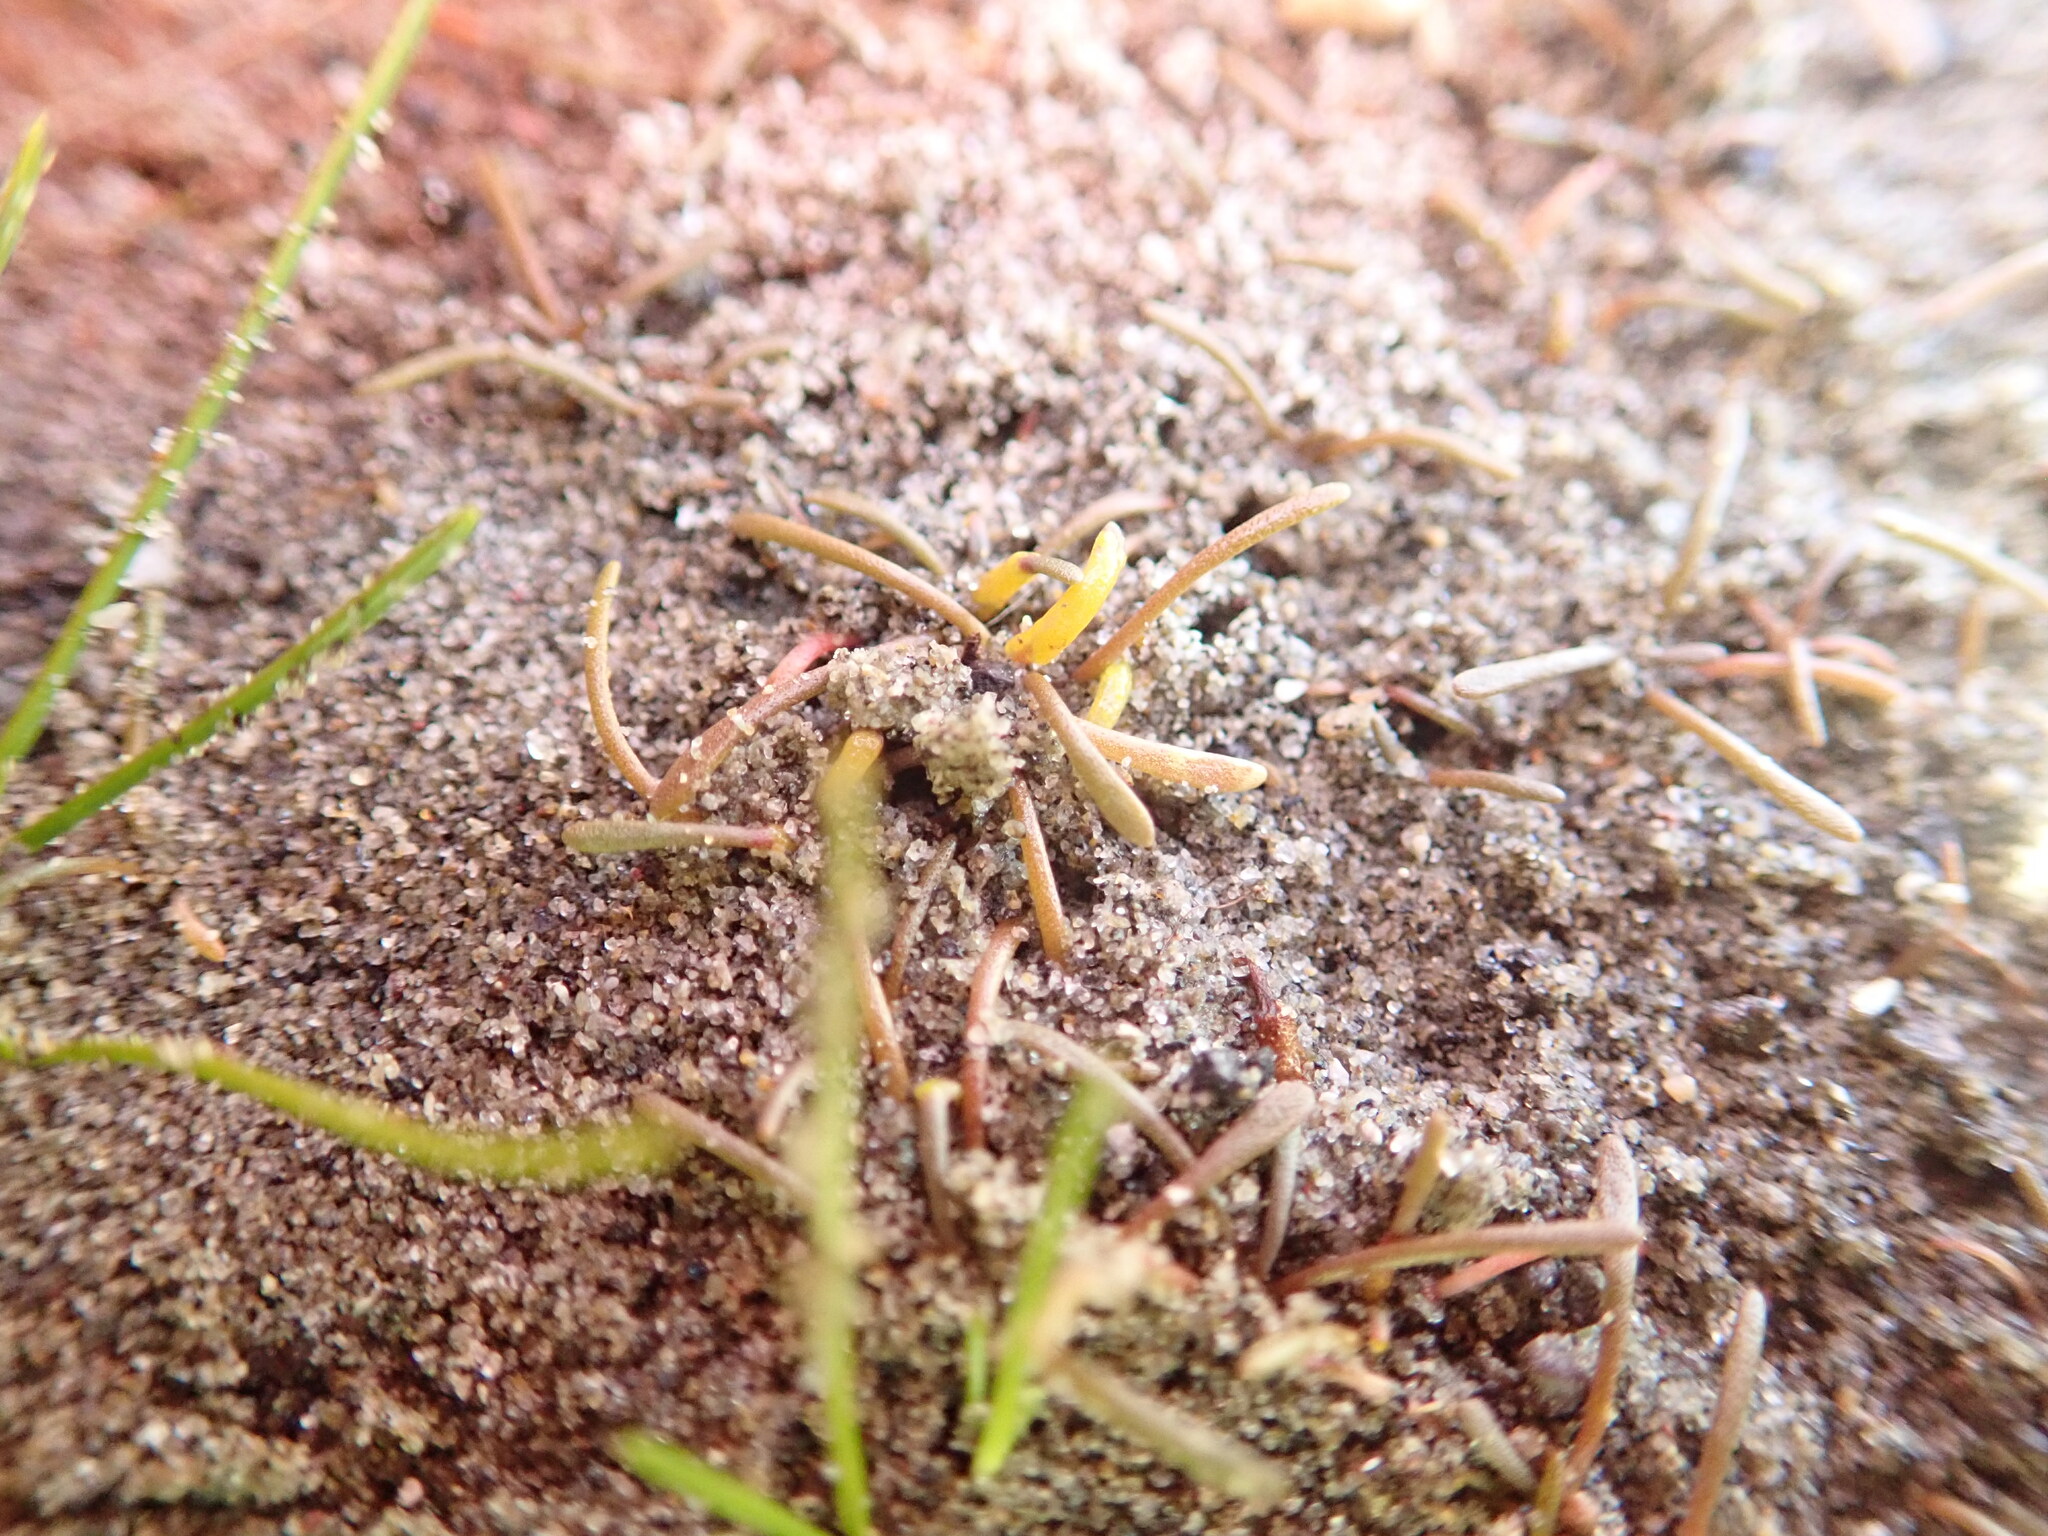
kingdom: Fungi
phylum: Chytridiomycota
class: Chytridiomycetes
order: Chytridiales
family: Synchytriaceae
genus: Synchytrium
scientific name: Synchytrium limosellae
